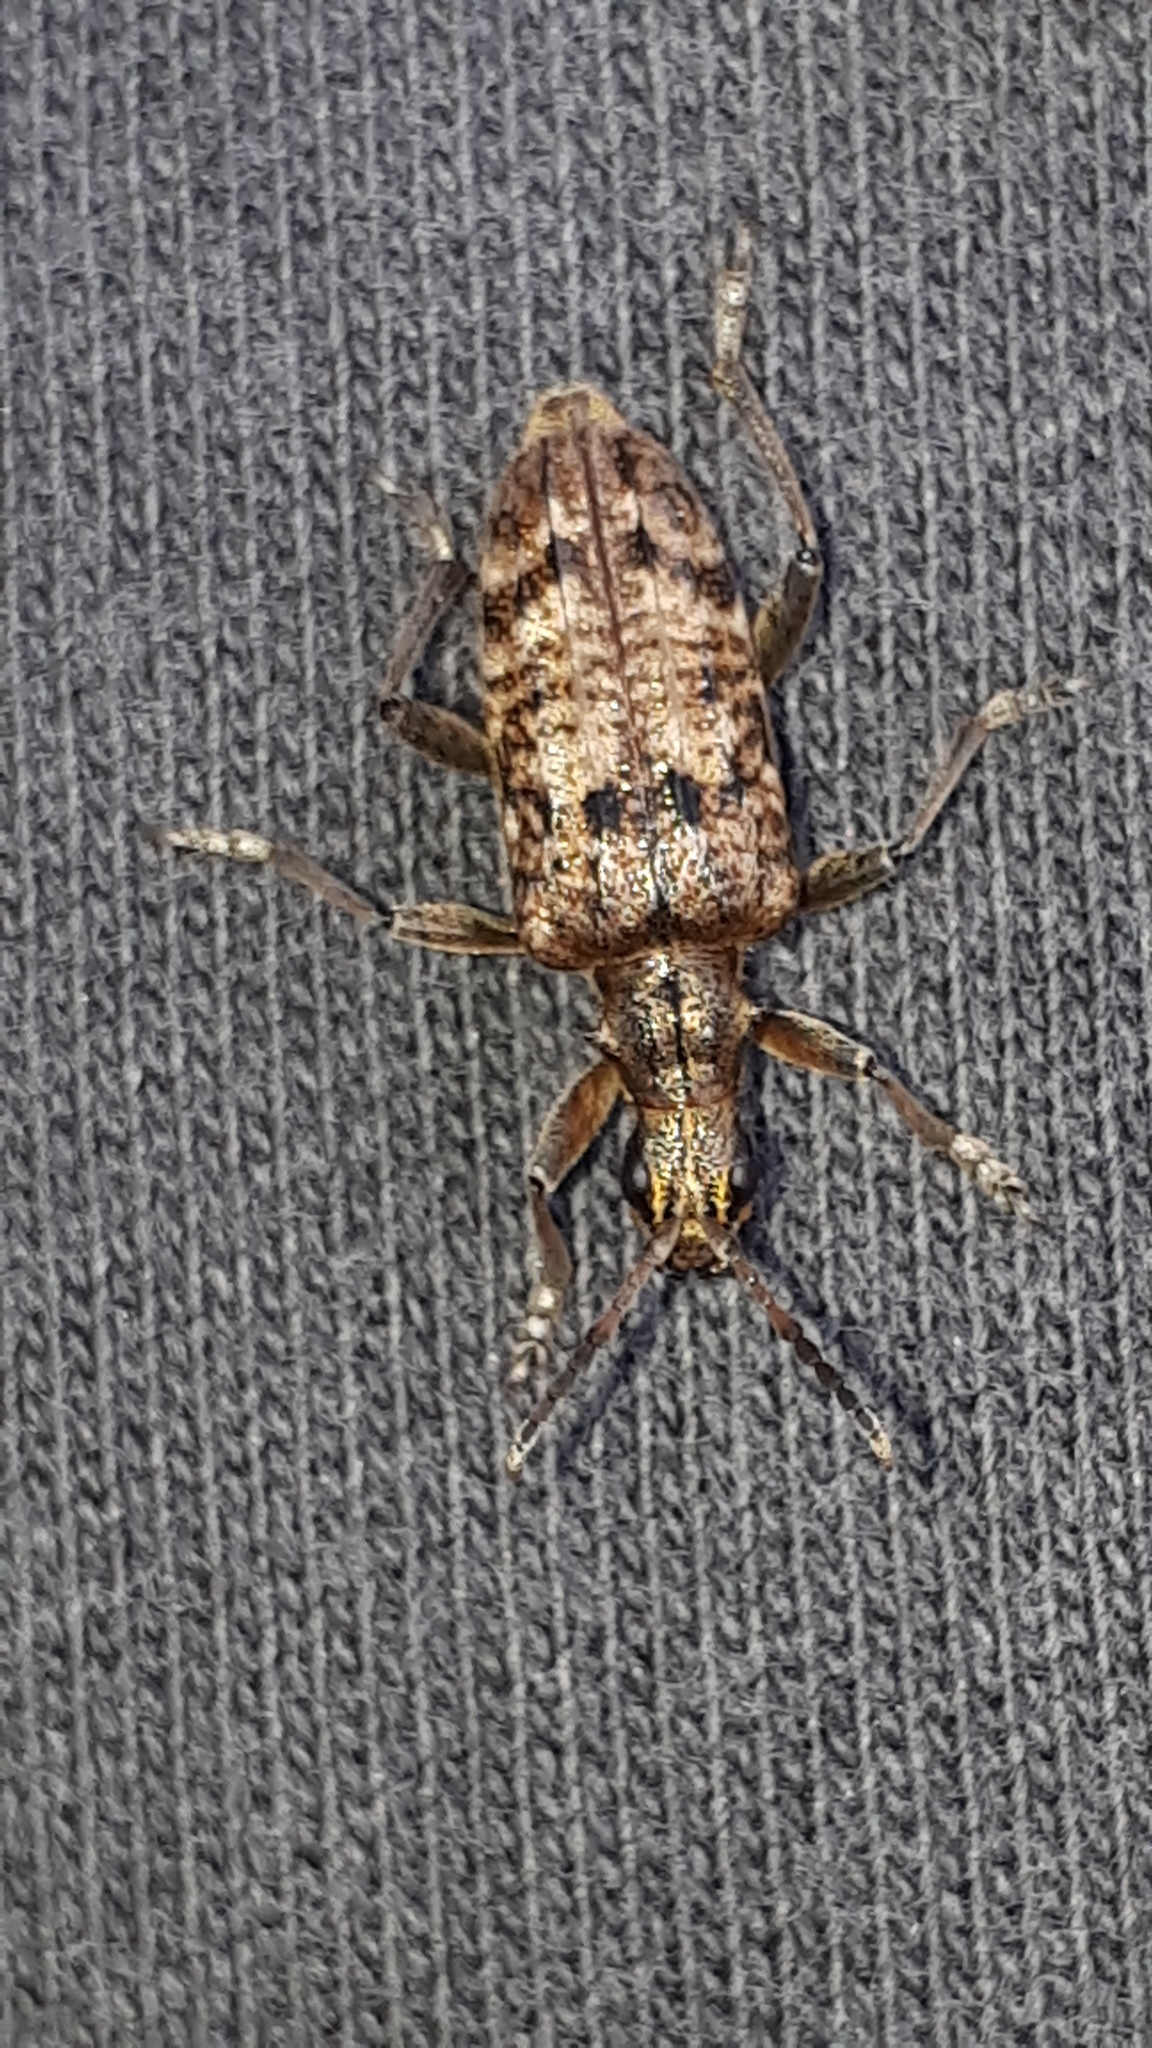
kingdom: Animalia
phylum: Arthropoda
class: Insecta
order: Coleoptera
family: Cerambycidae
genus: Rhagium
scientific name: Rhagium inquisitor
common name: Ribbed pine borer
